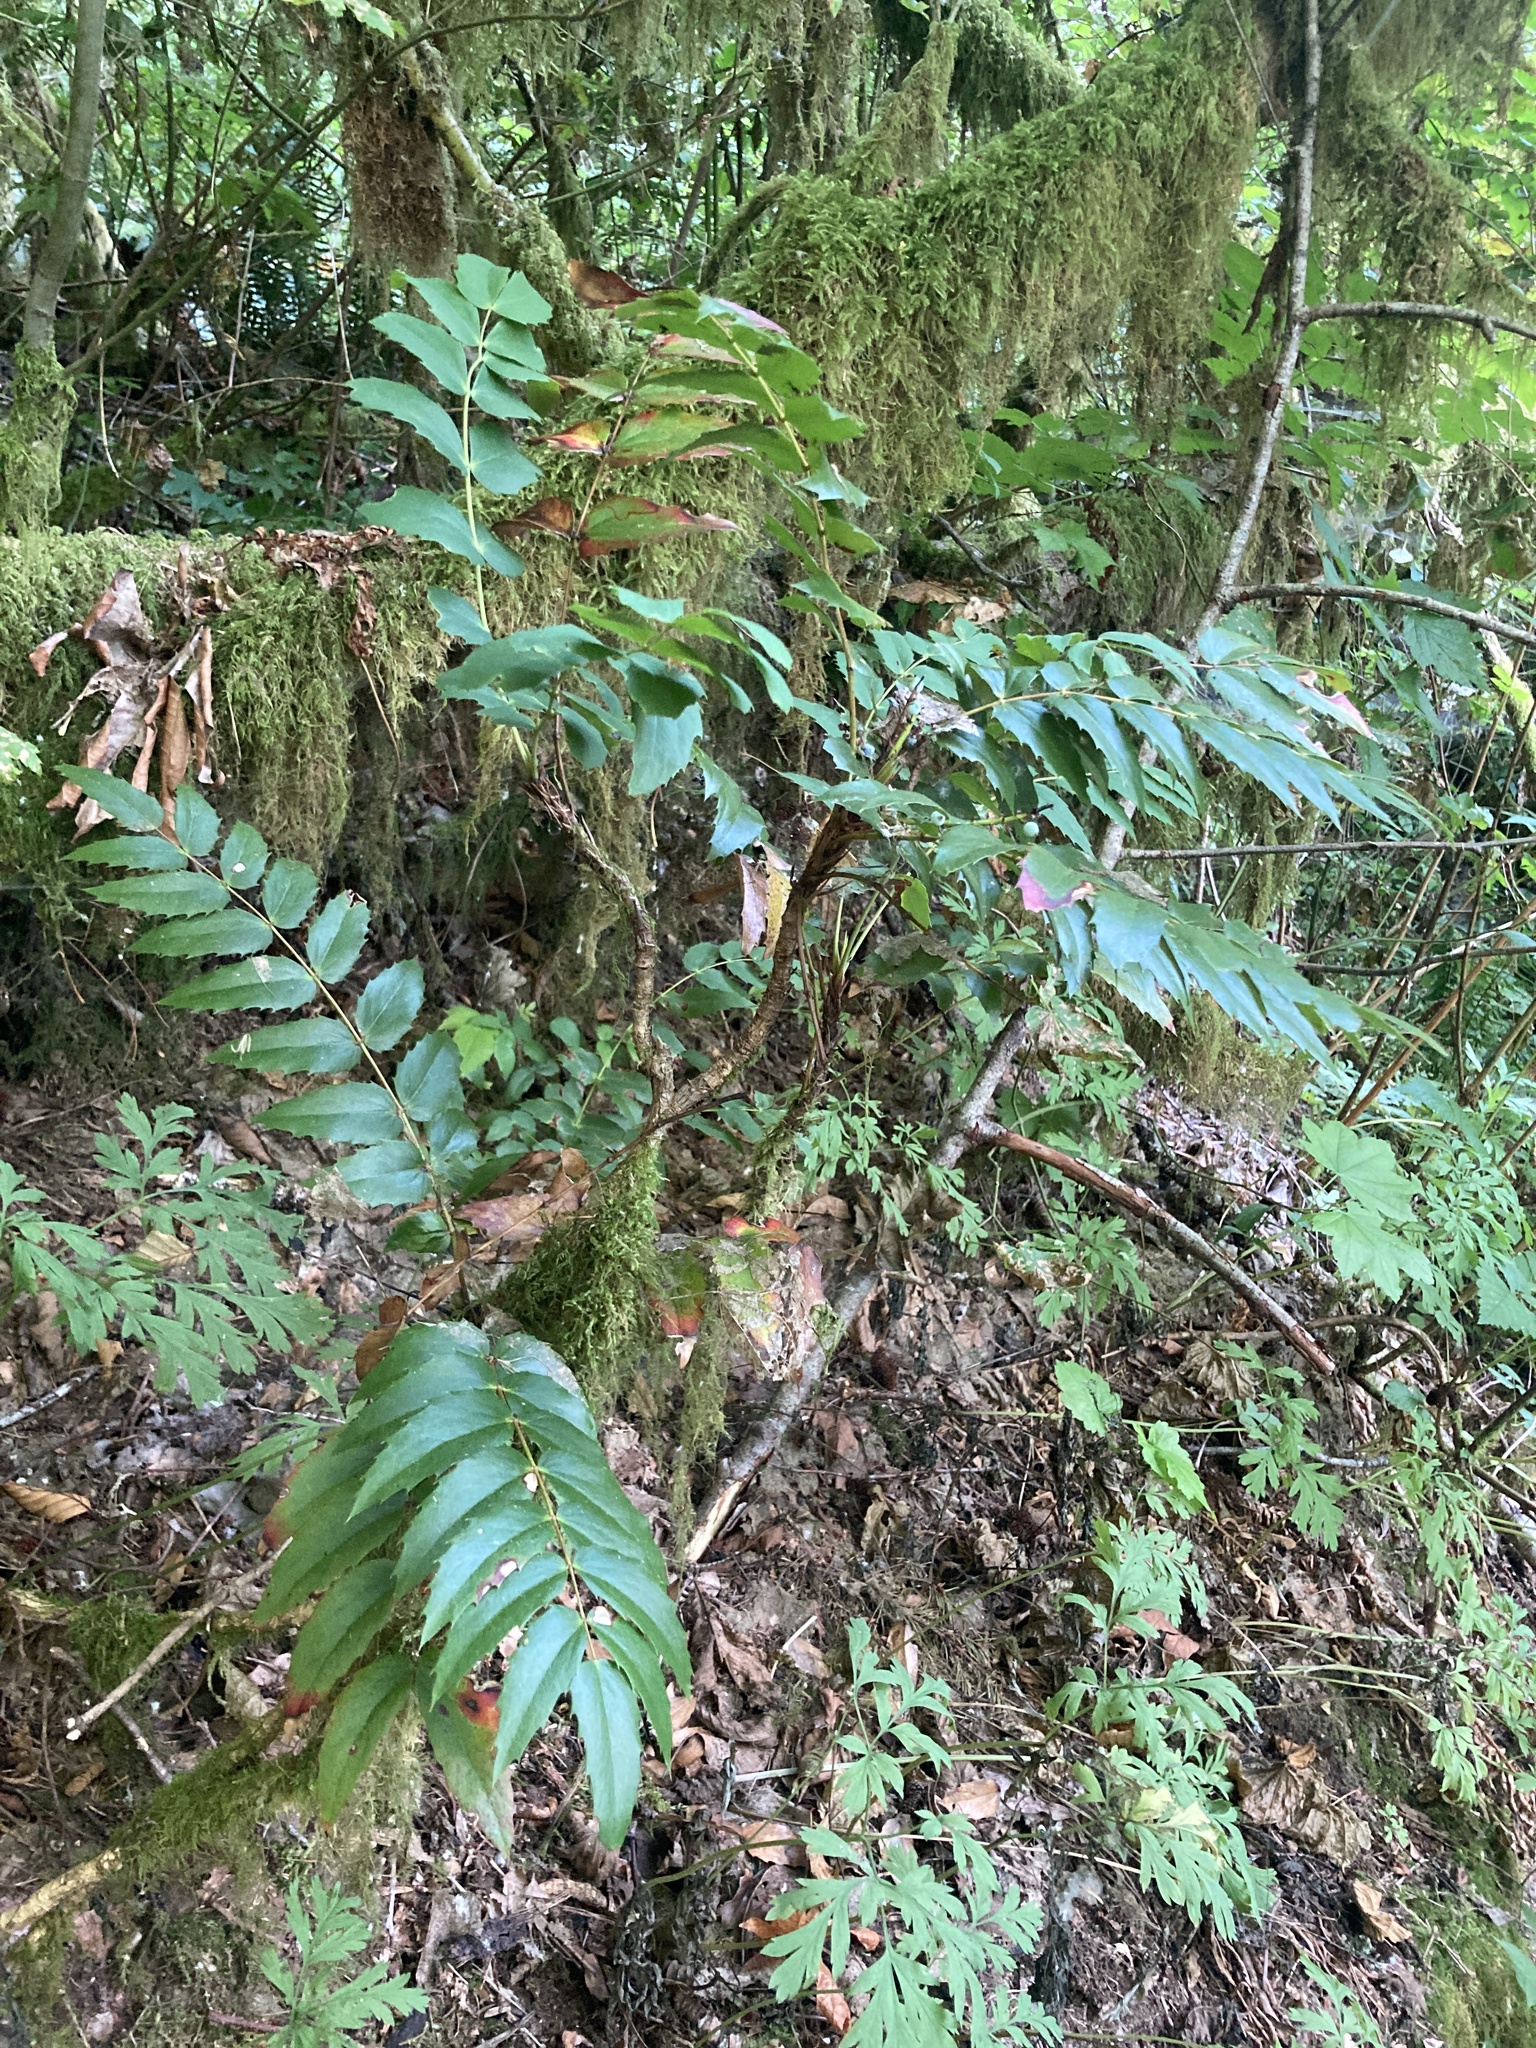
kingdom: Plantae
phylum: Tracheophyta
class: Magnoliopsida
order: Ranunculales
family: Berberidaceae
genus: Mahonia
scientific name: Mahonia nervosa
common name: Cascade oregon-grape
